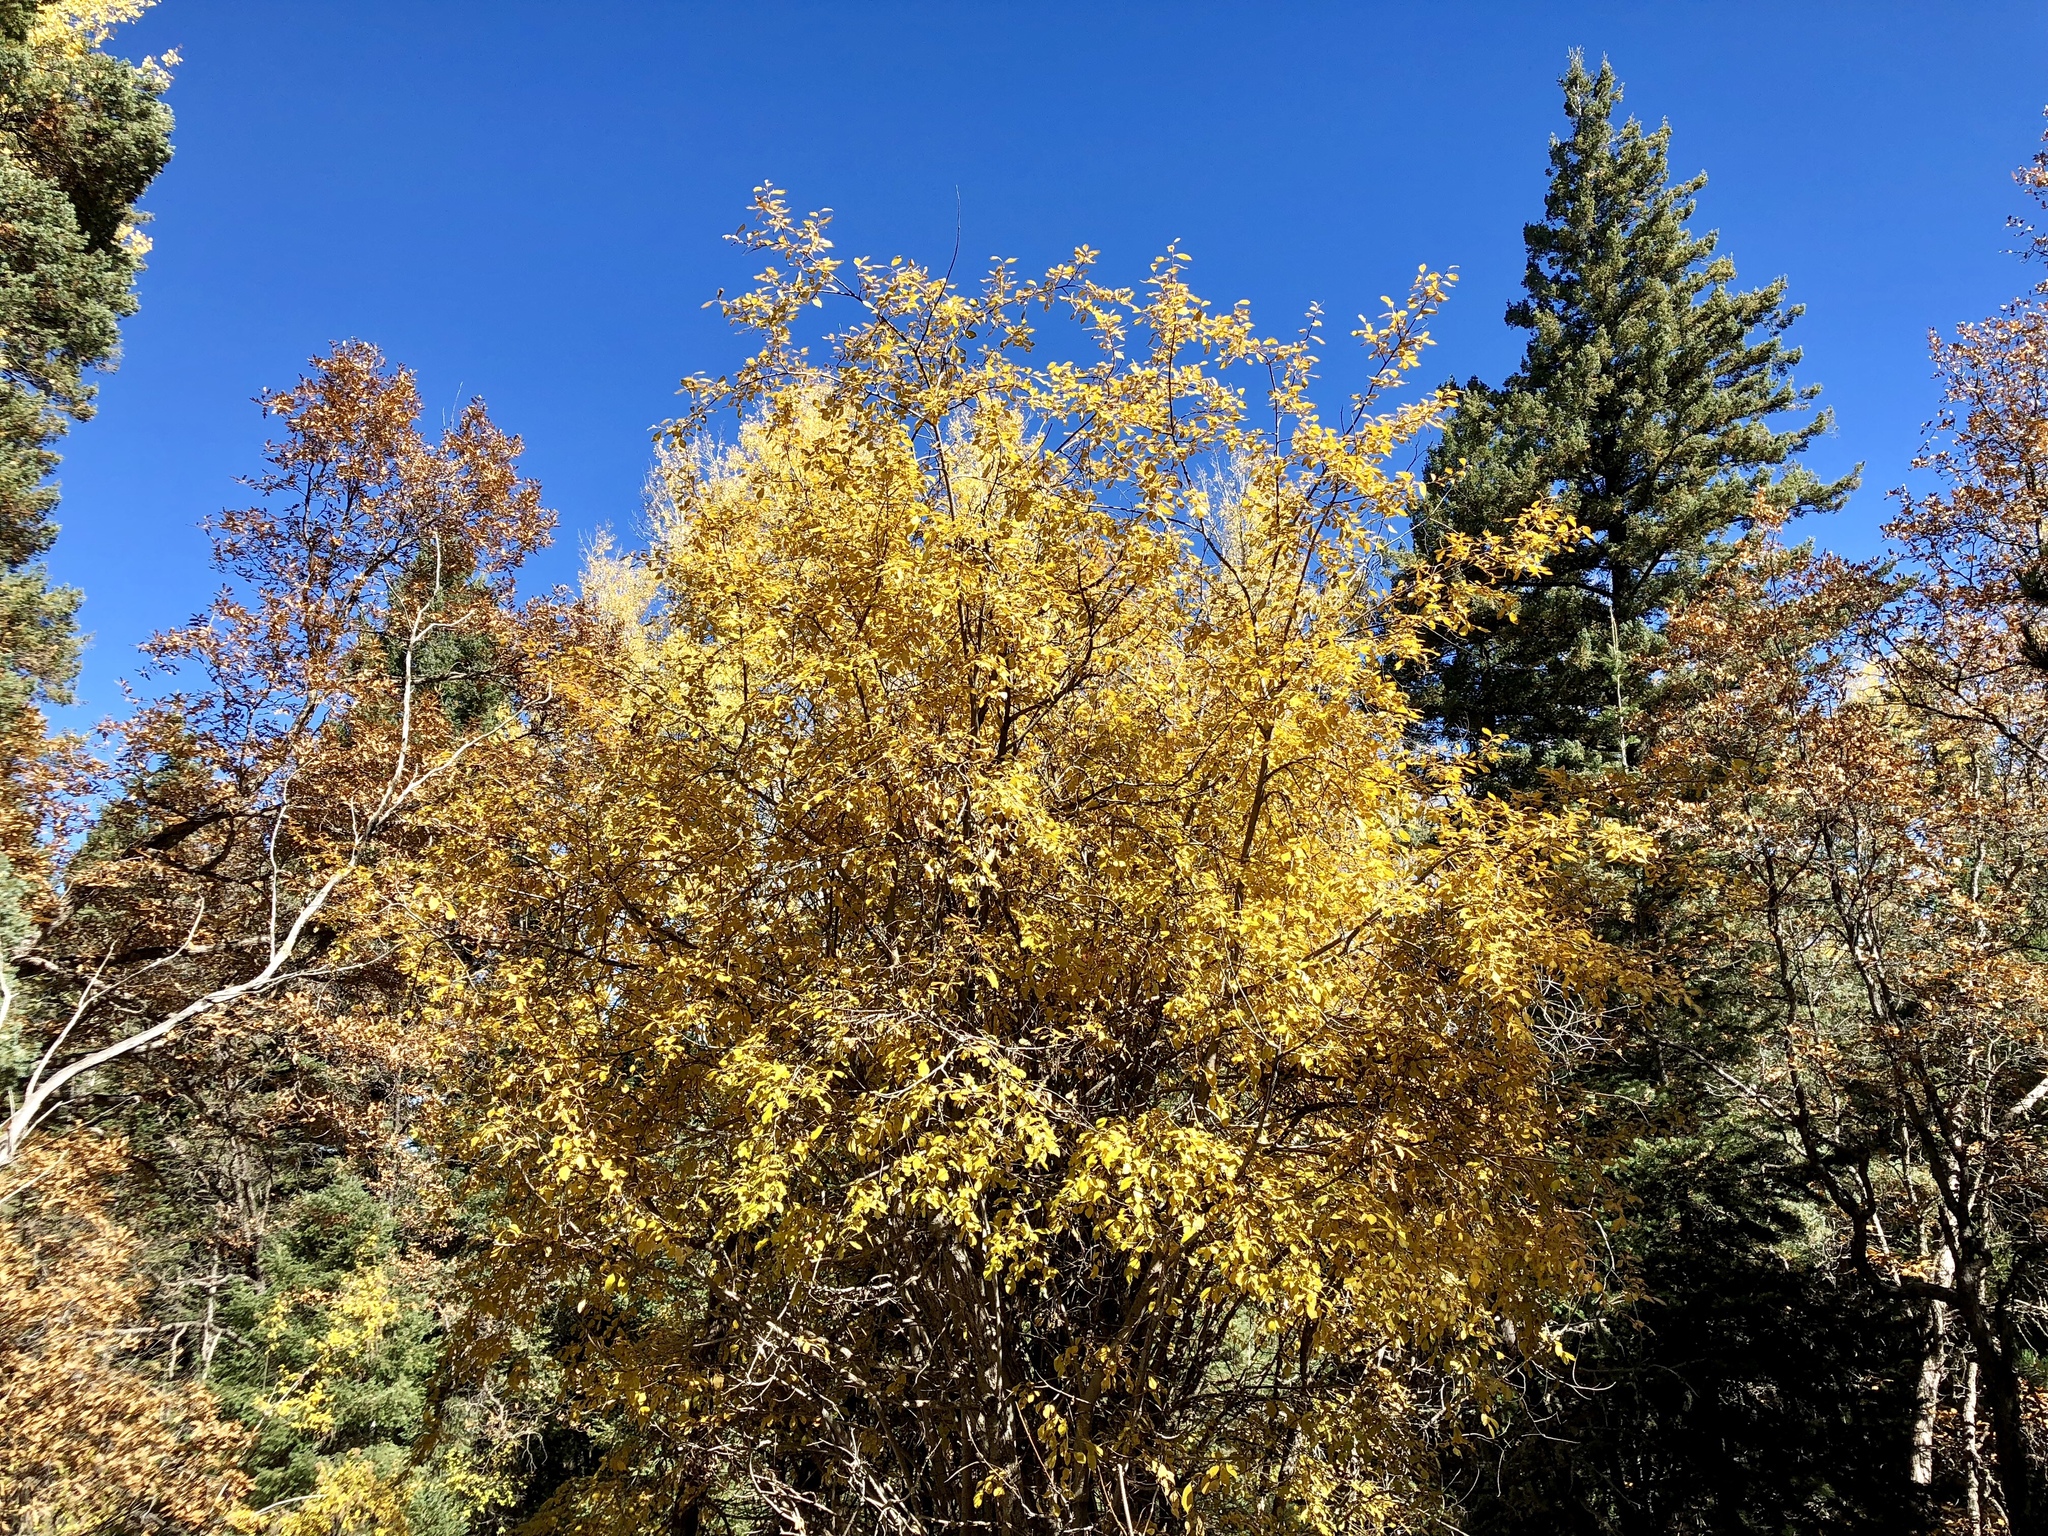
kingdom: Plantae
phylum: Tracheophyta
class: Magnoliopsida
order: Fagales
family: Fagaceae
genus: Quercus
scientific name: Quercus gambelii
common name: Gambel oak
